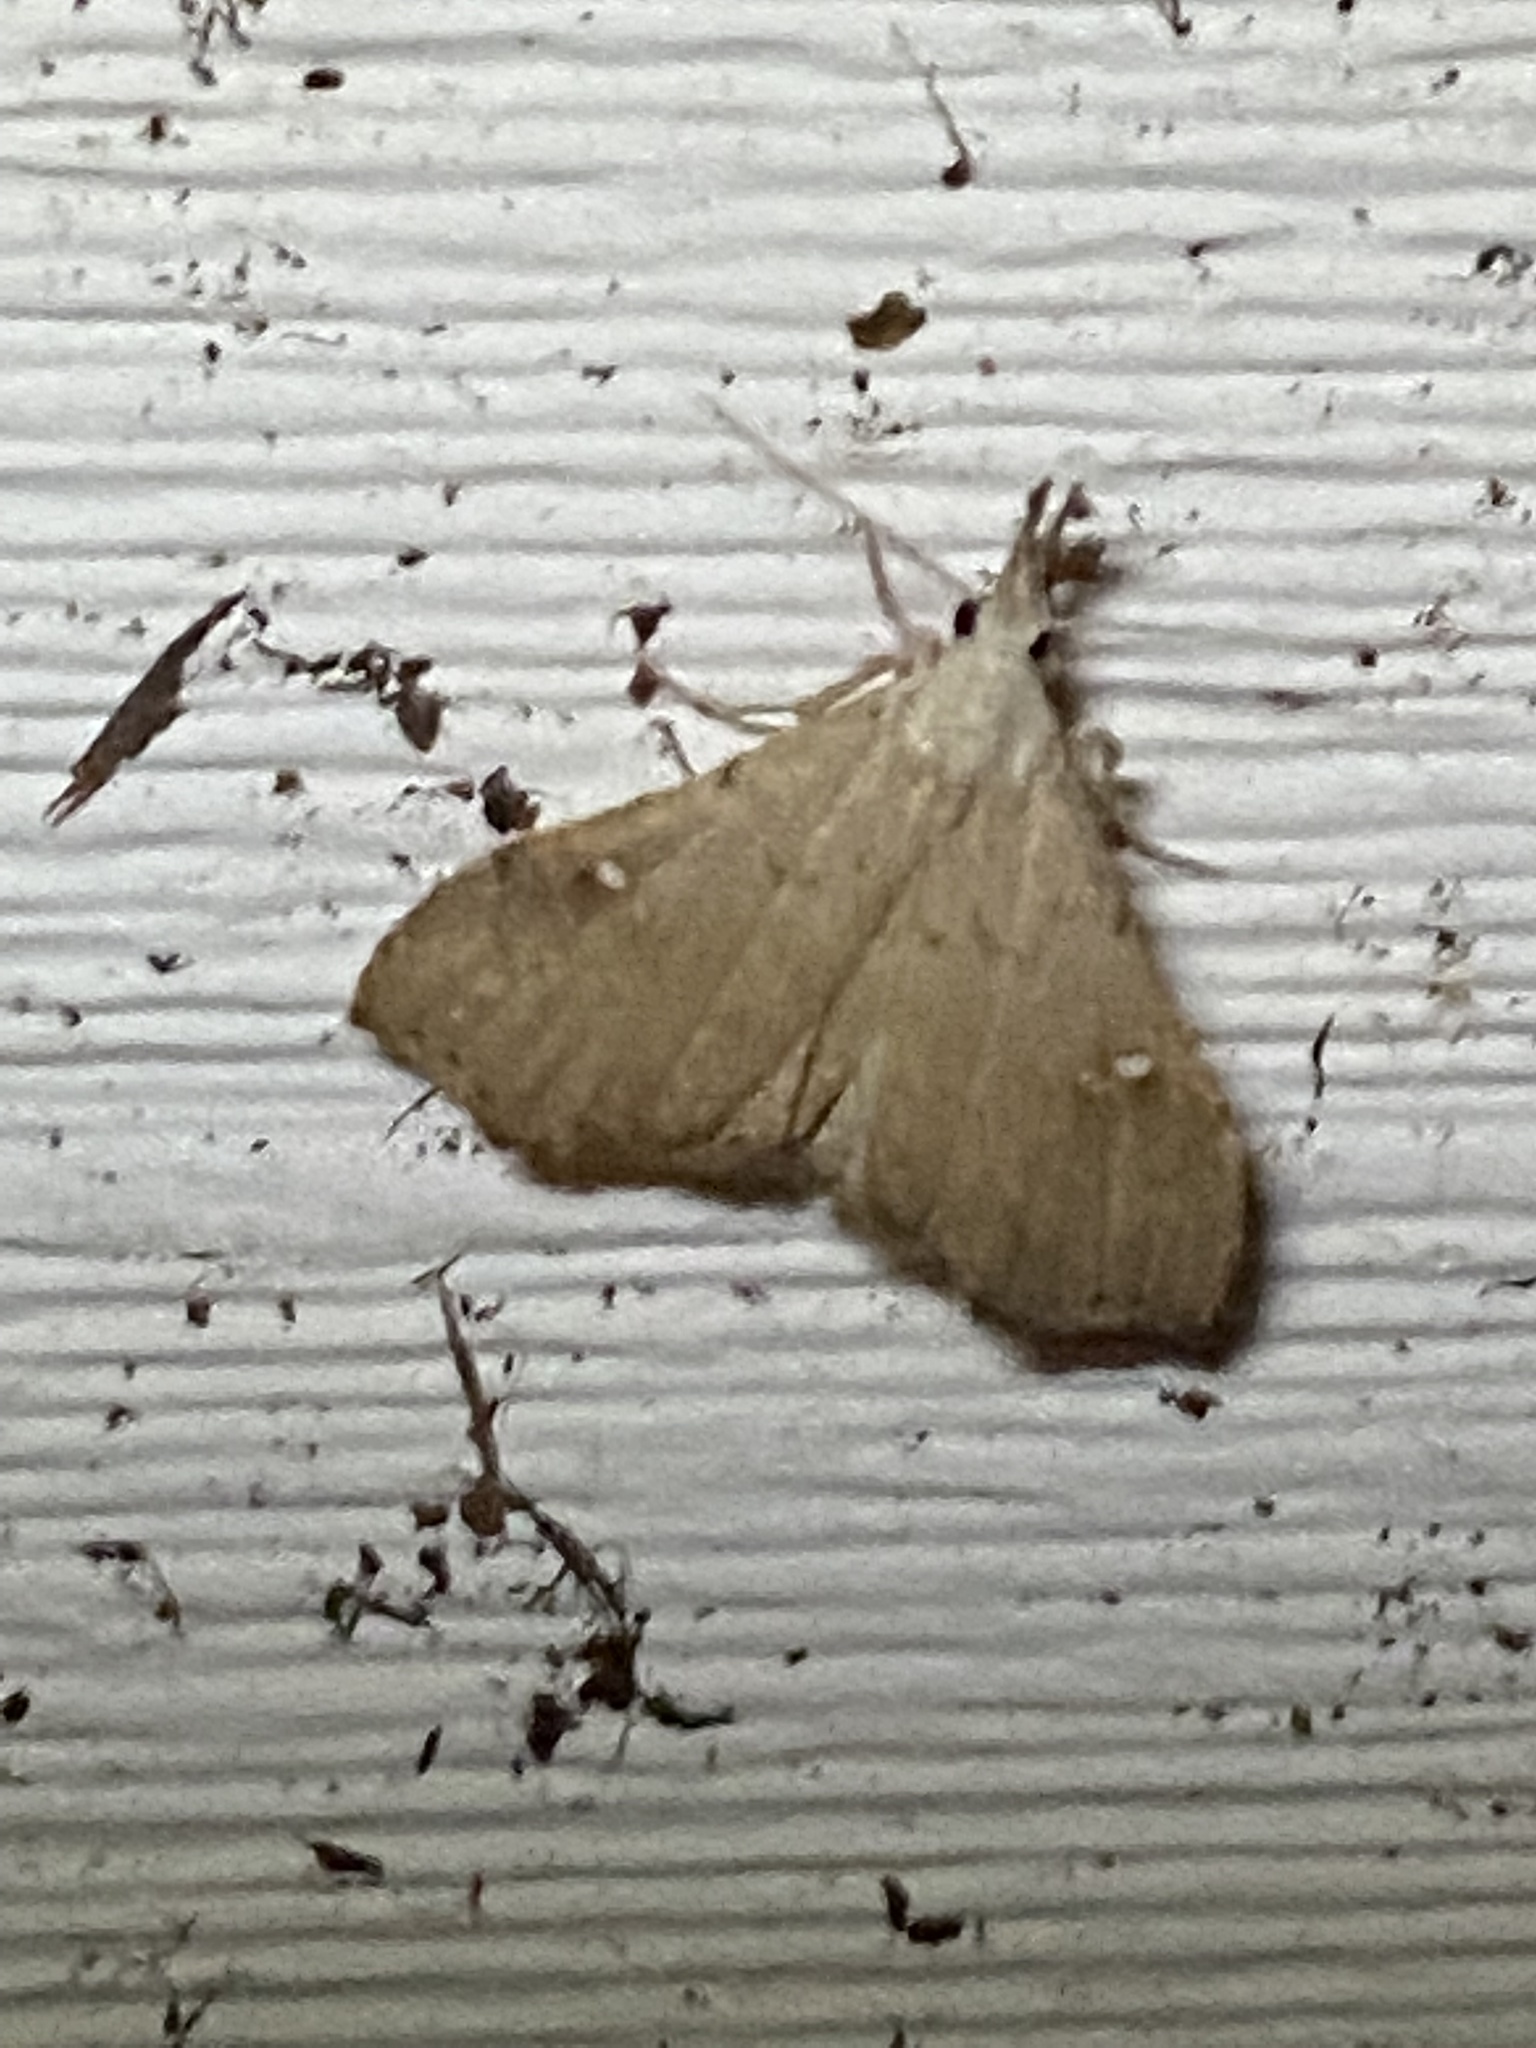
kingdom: Animalia
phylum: Arthropoda
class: Insecta
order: Lepidoptera
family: Erebidae
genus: Redectis
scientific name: Redectis vitrea
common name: White-spotted redectis
